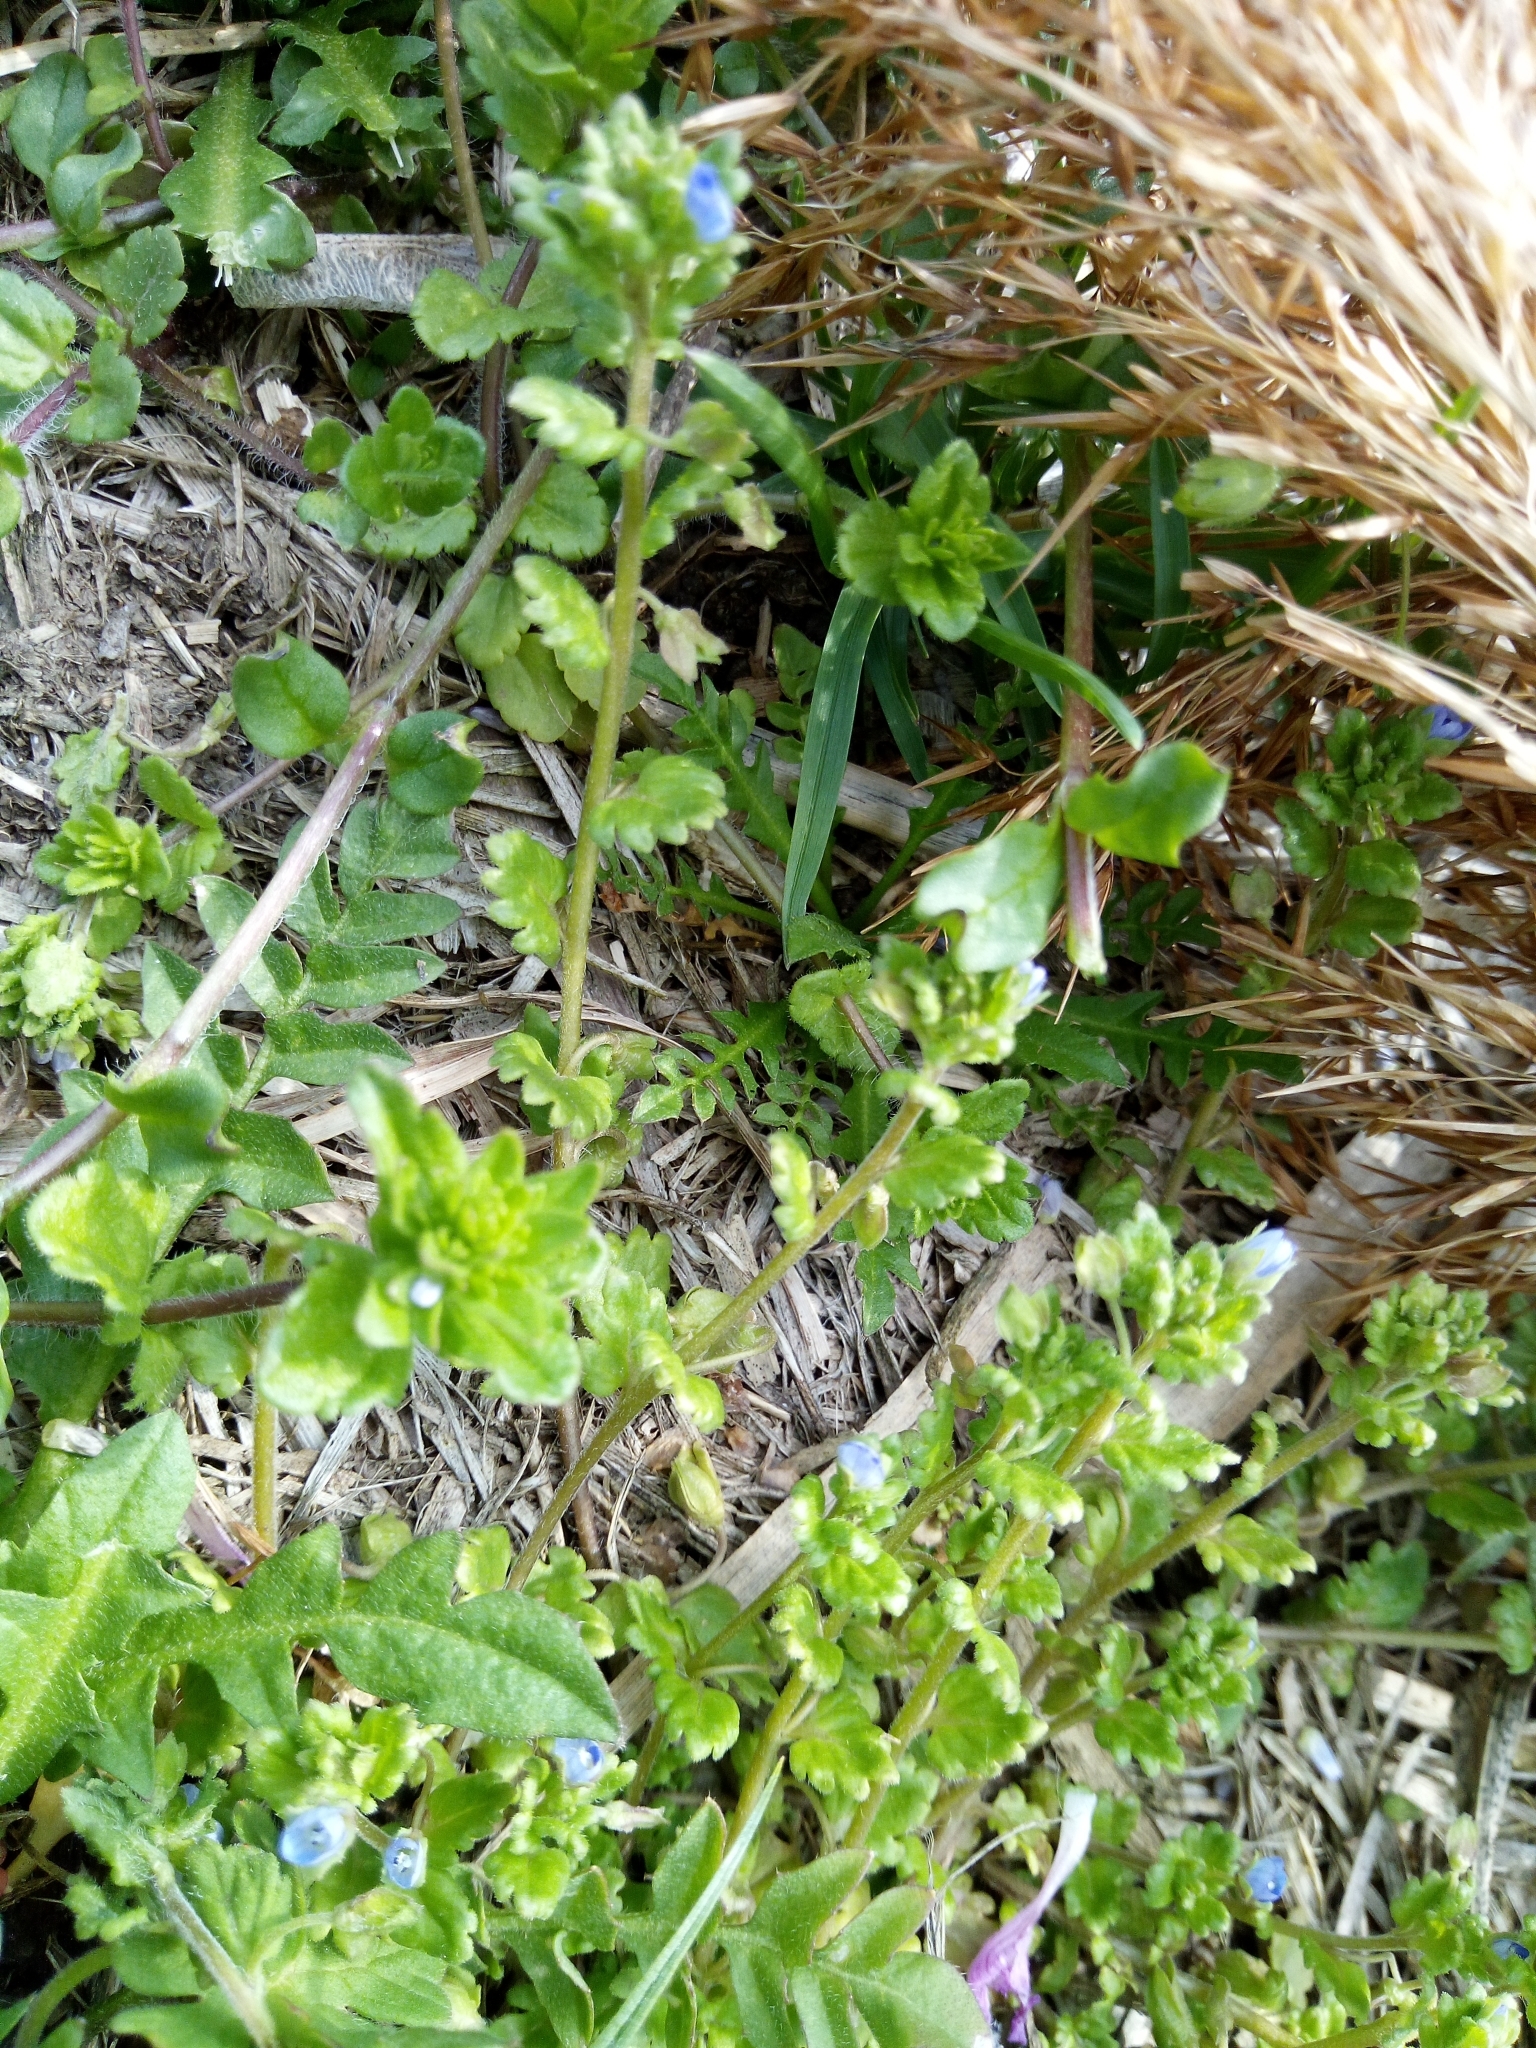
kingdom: Plantae
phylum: Tracheophyta
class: Magnoliopsida
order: Lamiales
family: Plantaginaceae
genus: Veronica
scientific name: Veronica polita
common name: Grey field-speedwell
